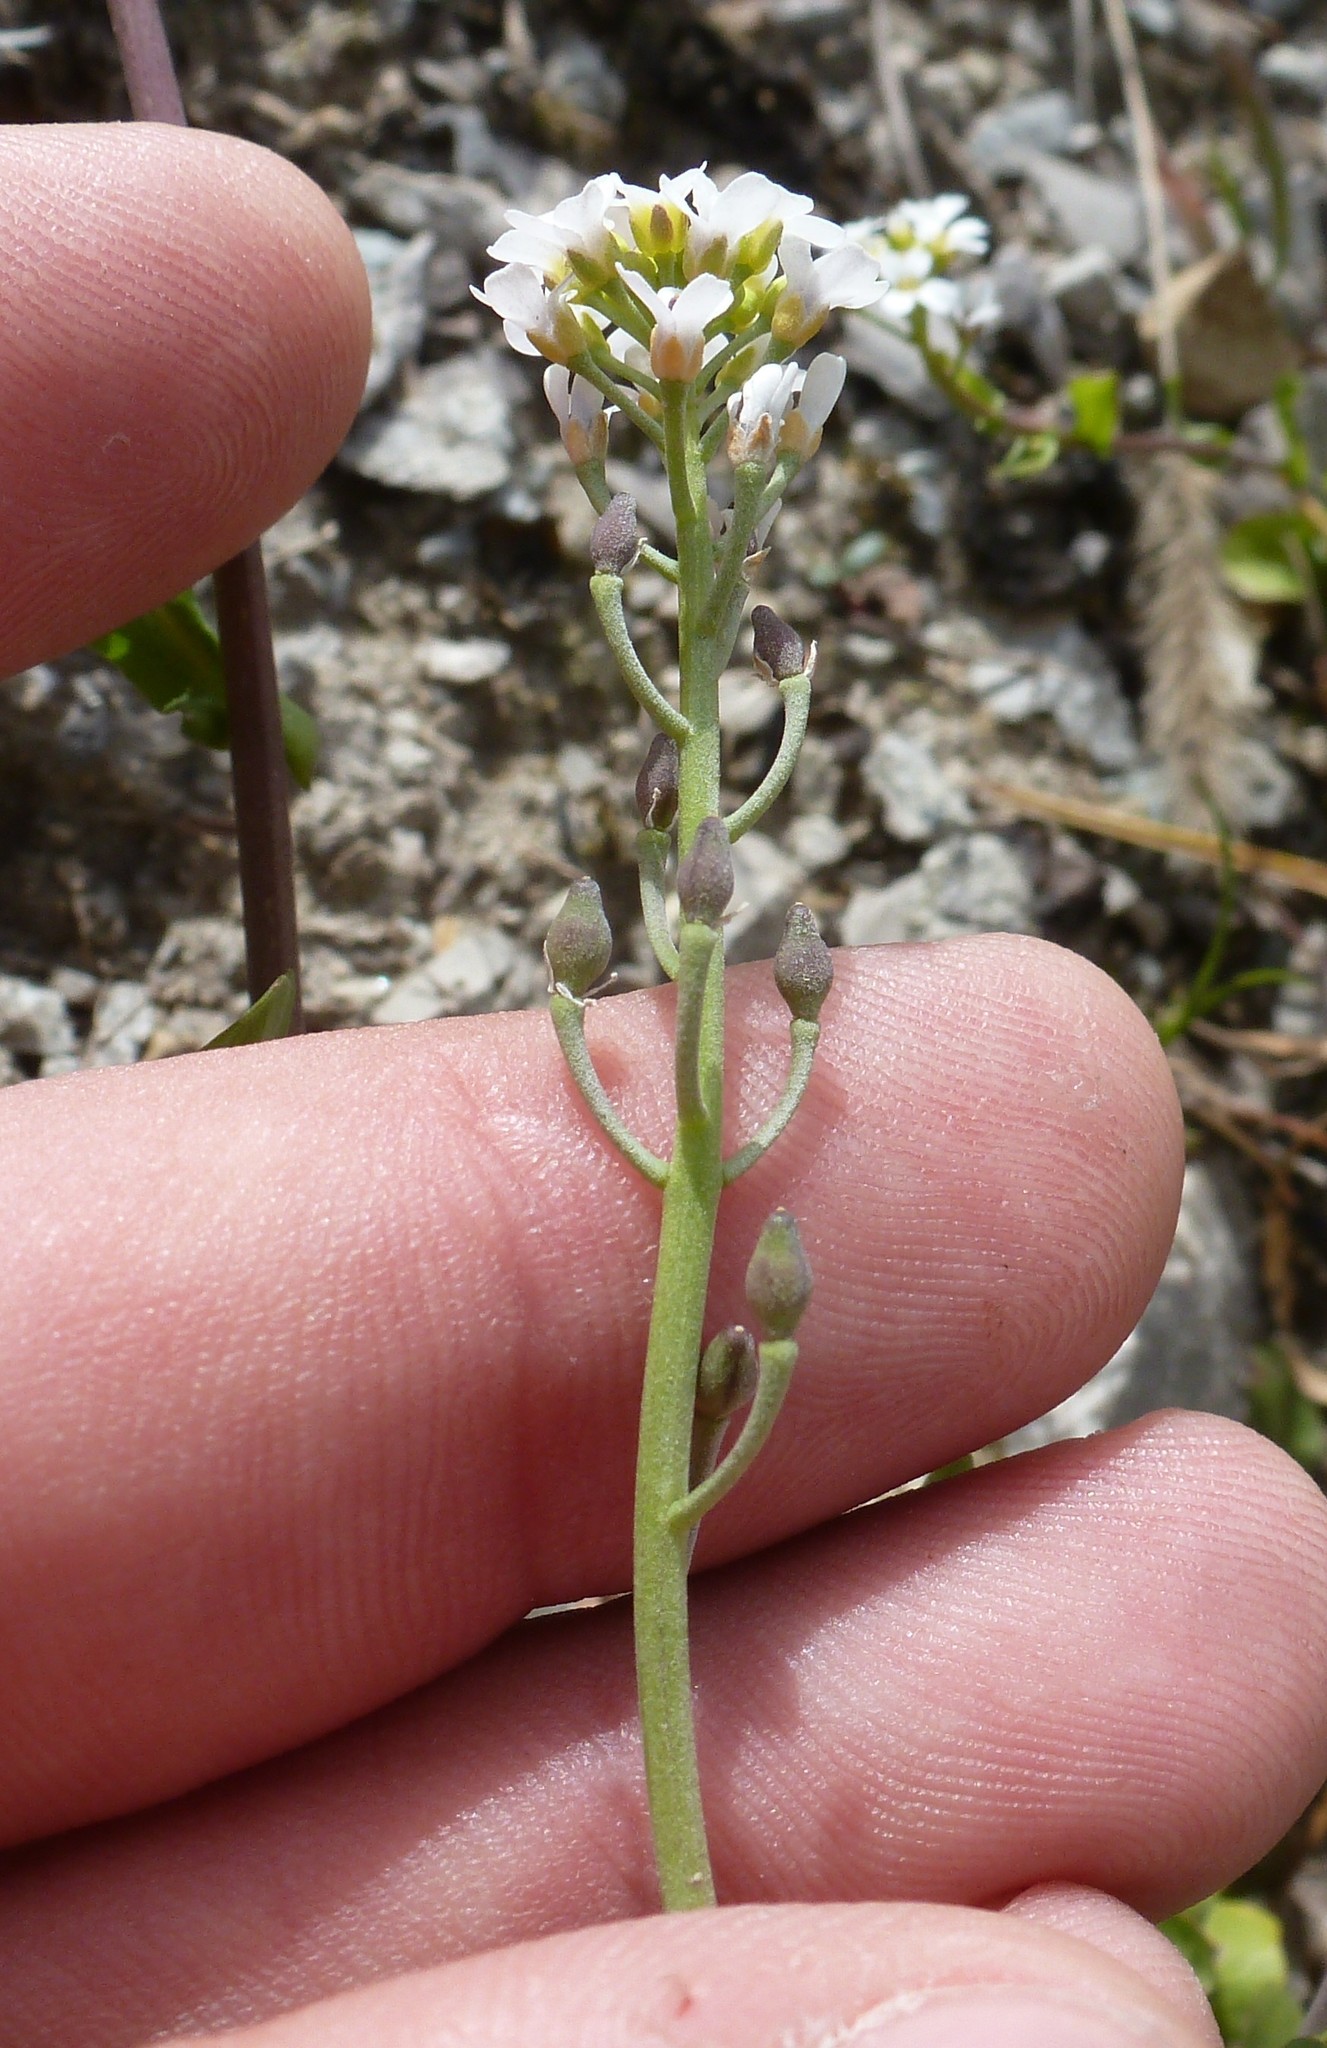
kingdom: Plantae
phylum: Tracheophyta
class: Magnoliopsida
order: Brassicales
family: Brassicaceae
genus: Calepina
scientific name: Calepina irregularis
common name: White ballmustard
